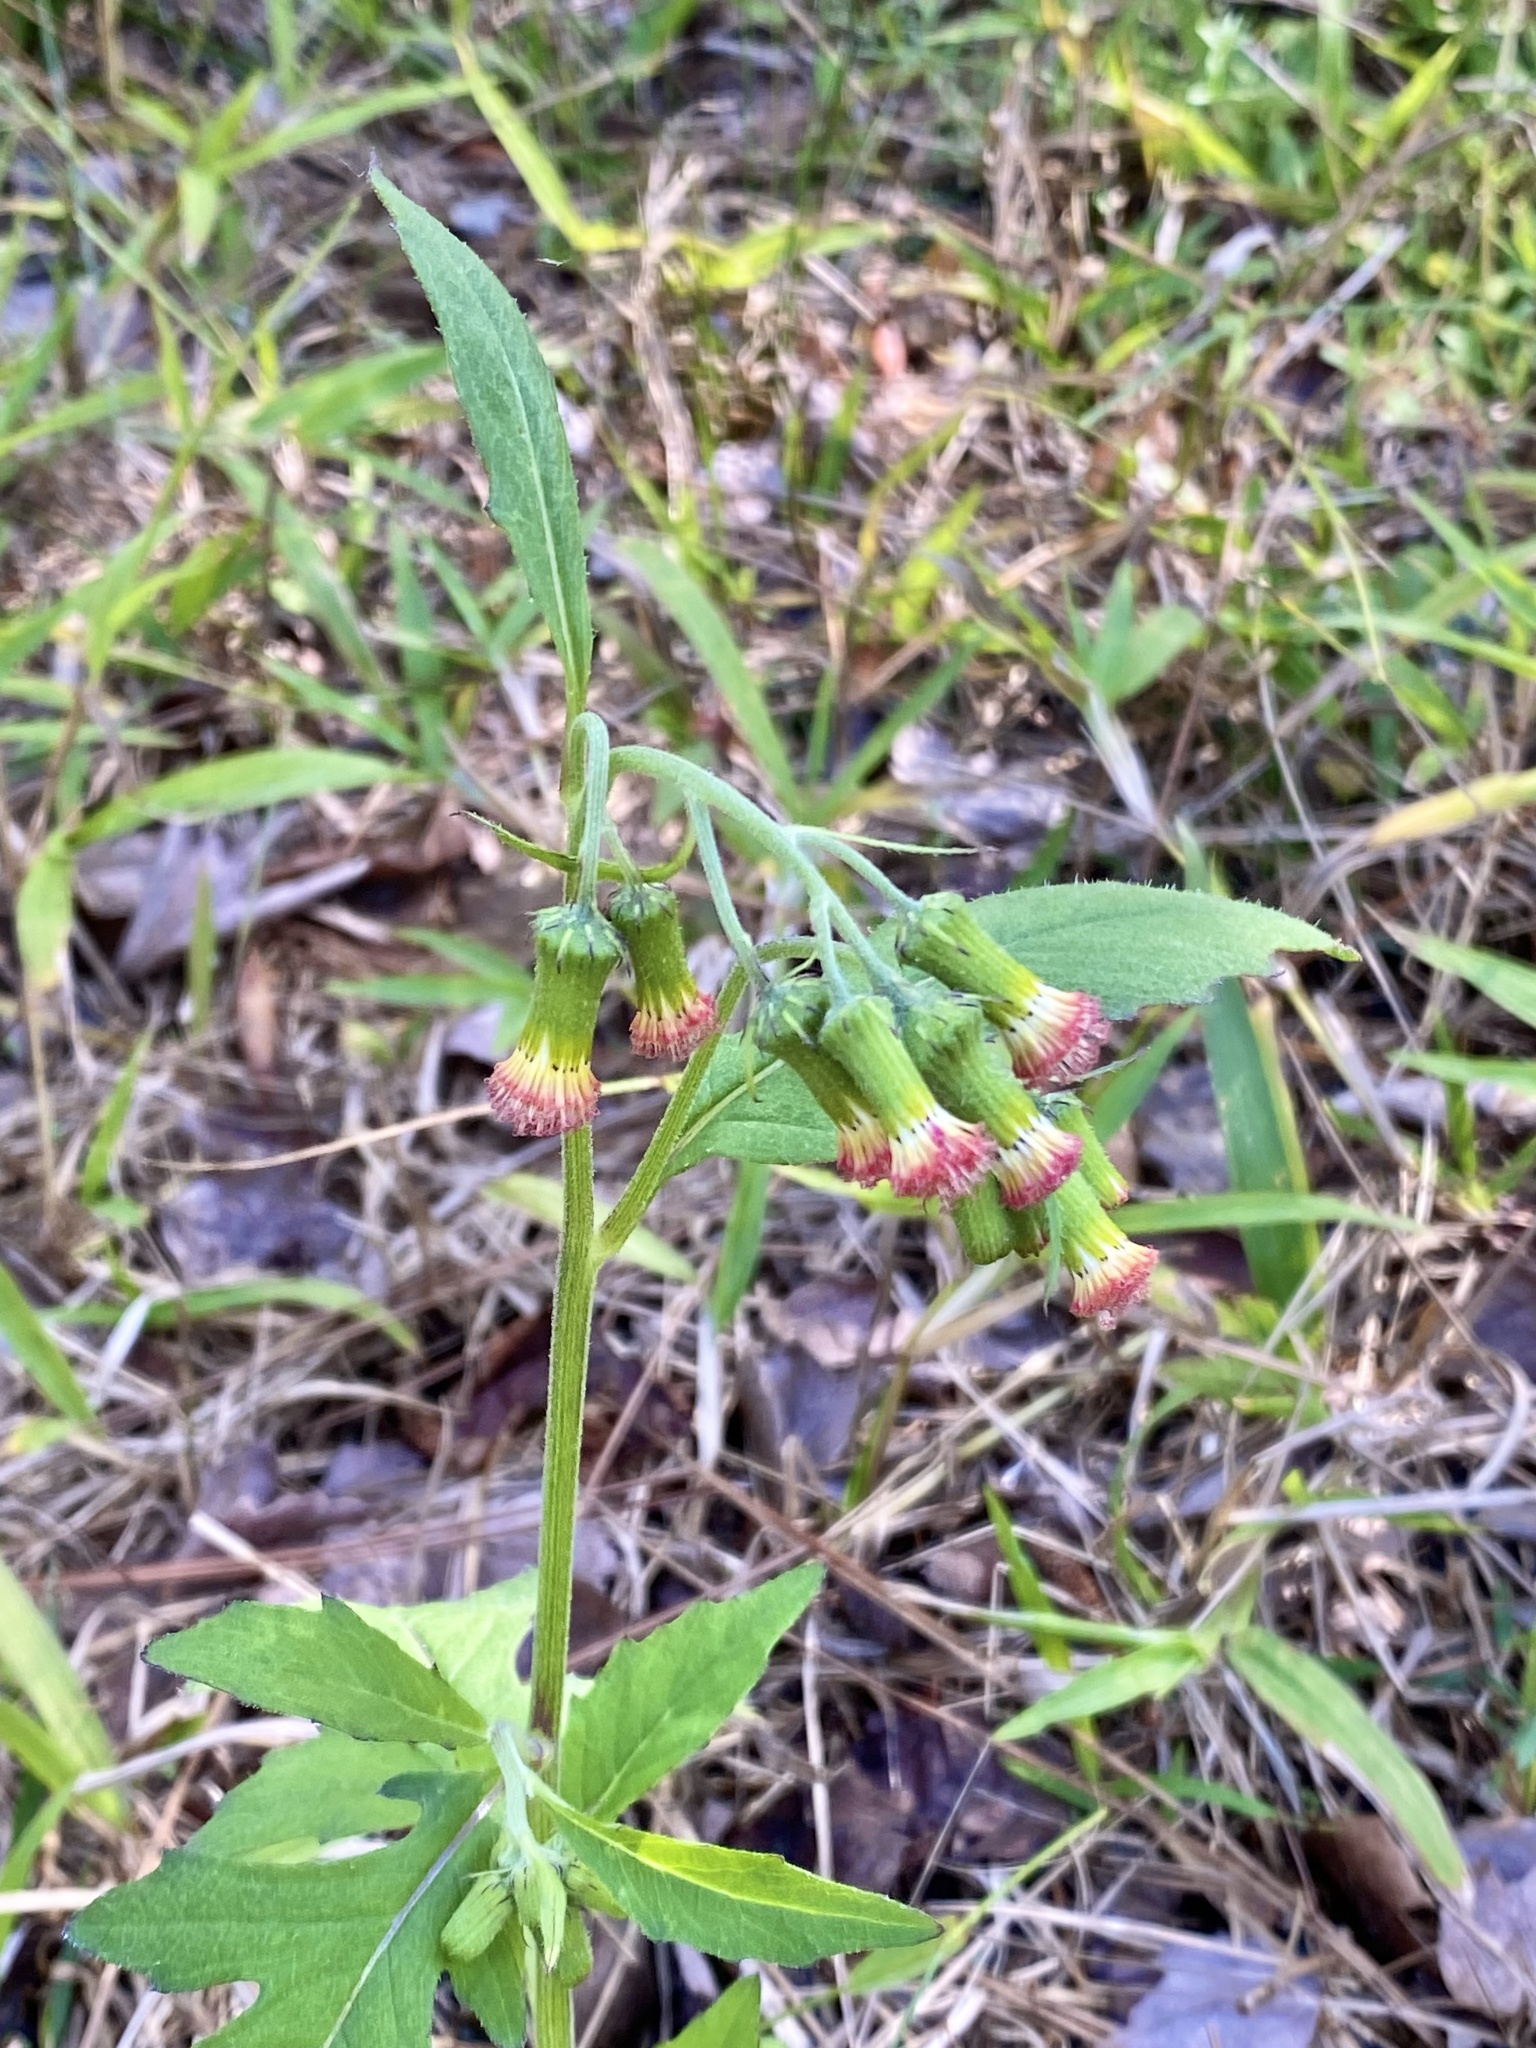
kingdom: Plantae
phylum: Tracheophyta
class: Magnoliopsida
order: Asterales
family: Asteraceae
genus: Crassocephalum
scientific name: Crassocephalum crepidioides
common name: Redflower ragleaf
